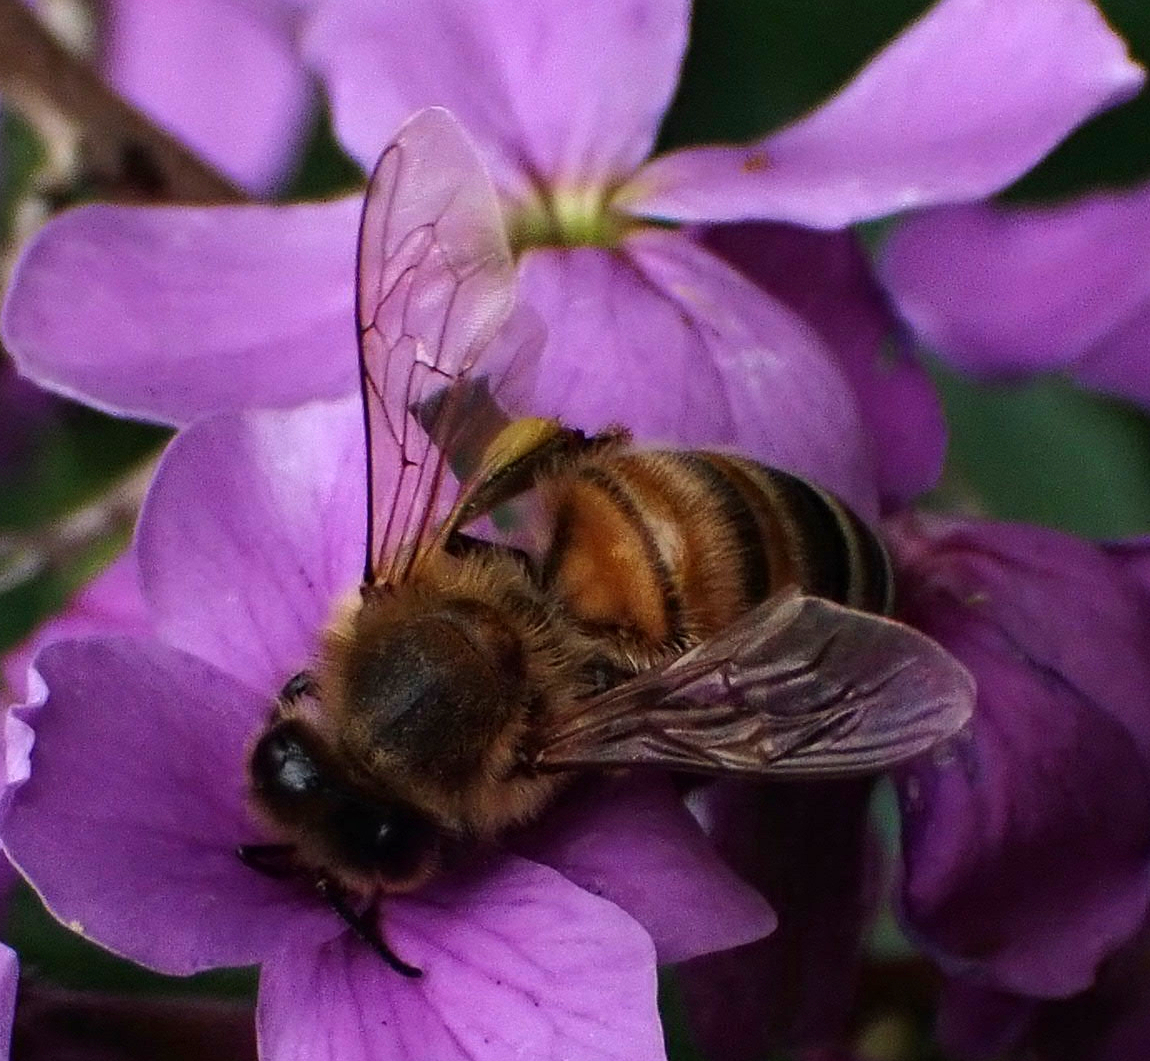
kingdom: Animalia
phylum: Arthropoda
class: Insecta
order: Hymenoptera
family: Apidae
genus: Apis
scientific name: Apis mellifera
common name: Honey bee
